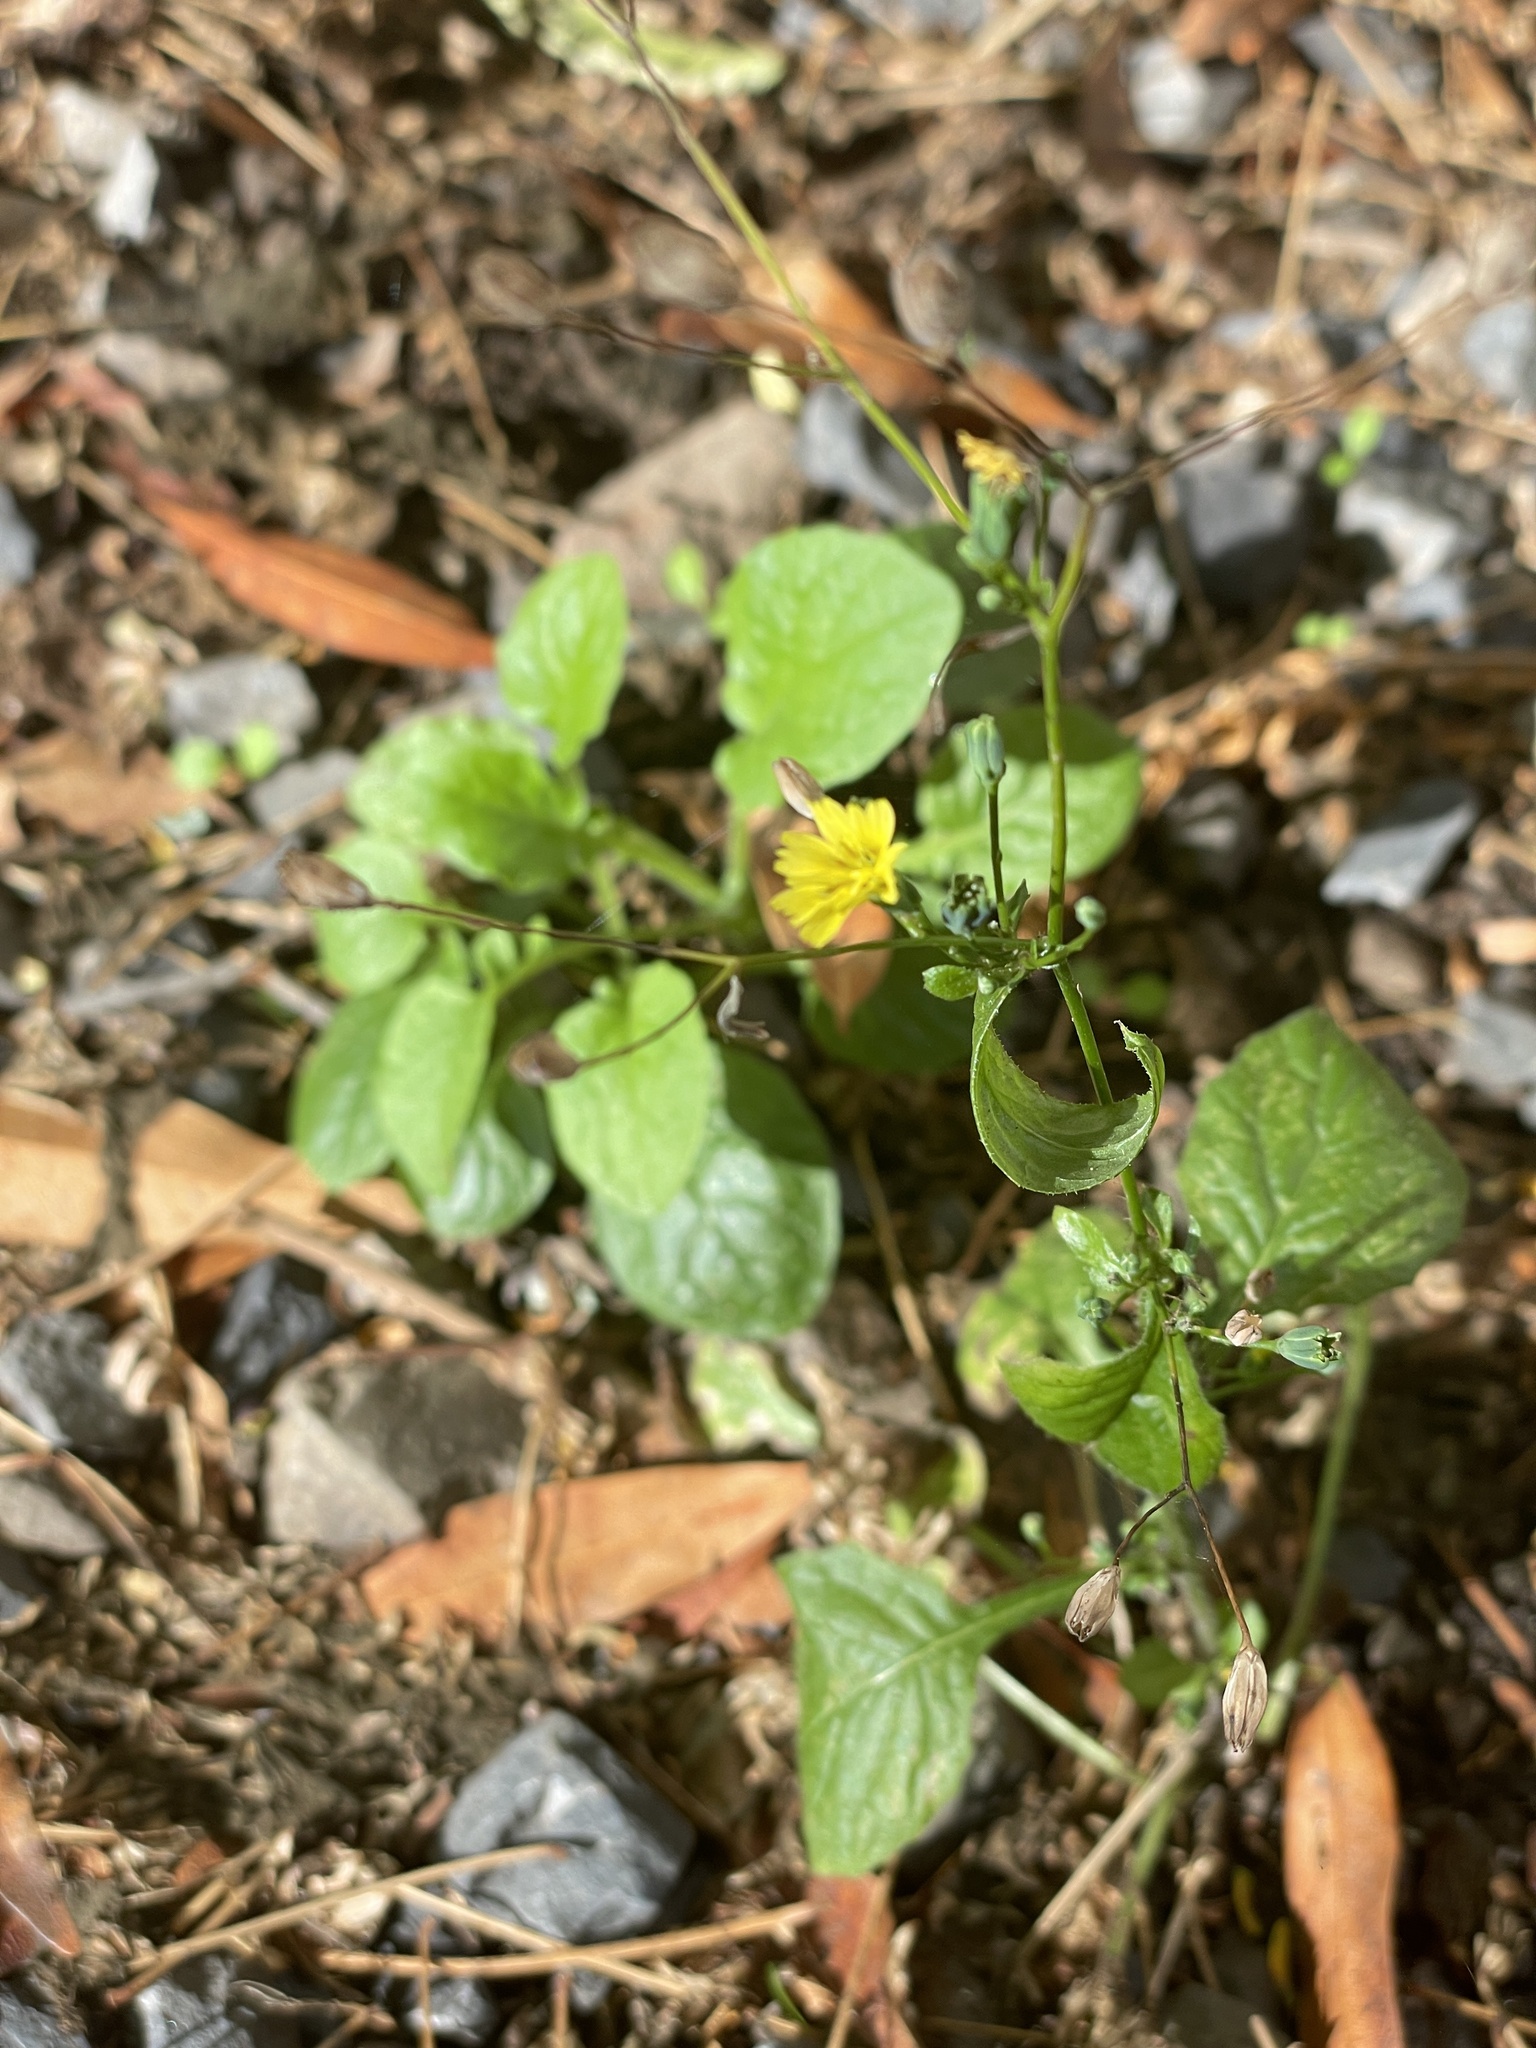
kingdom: Plantae
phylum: Tracheophyta
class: Magnoliopsida
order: Asterales
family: Asteraceae
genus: Lapsana
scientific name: Lapsana communis
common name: Nipplewort
